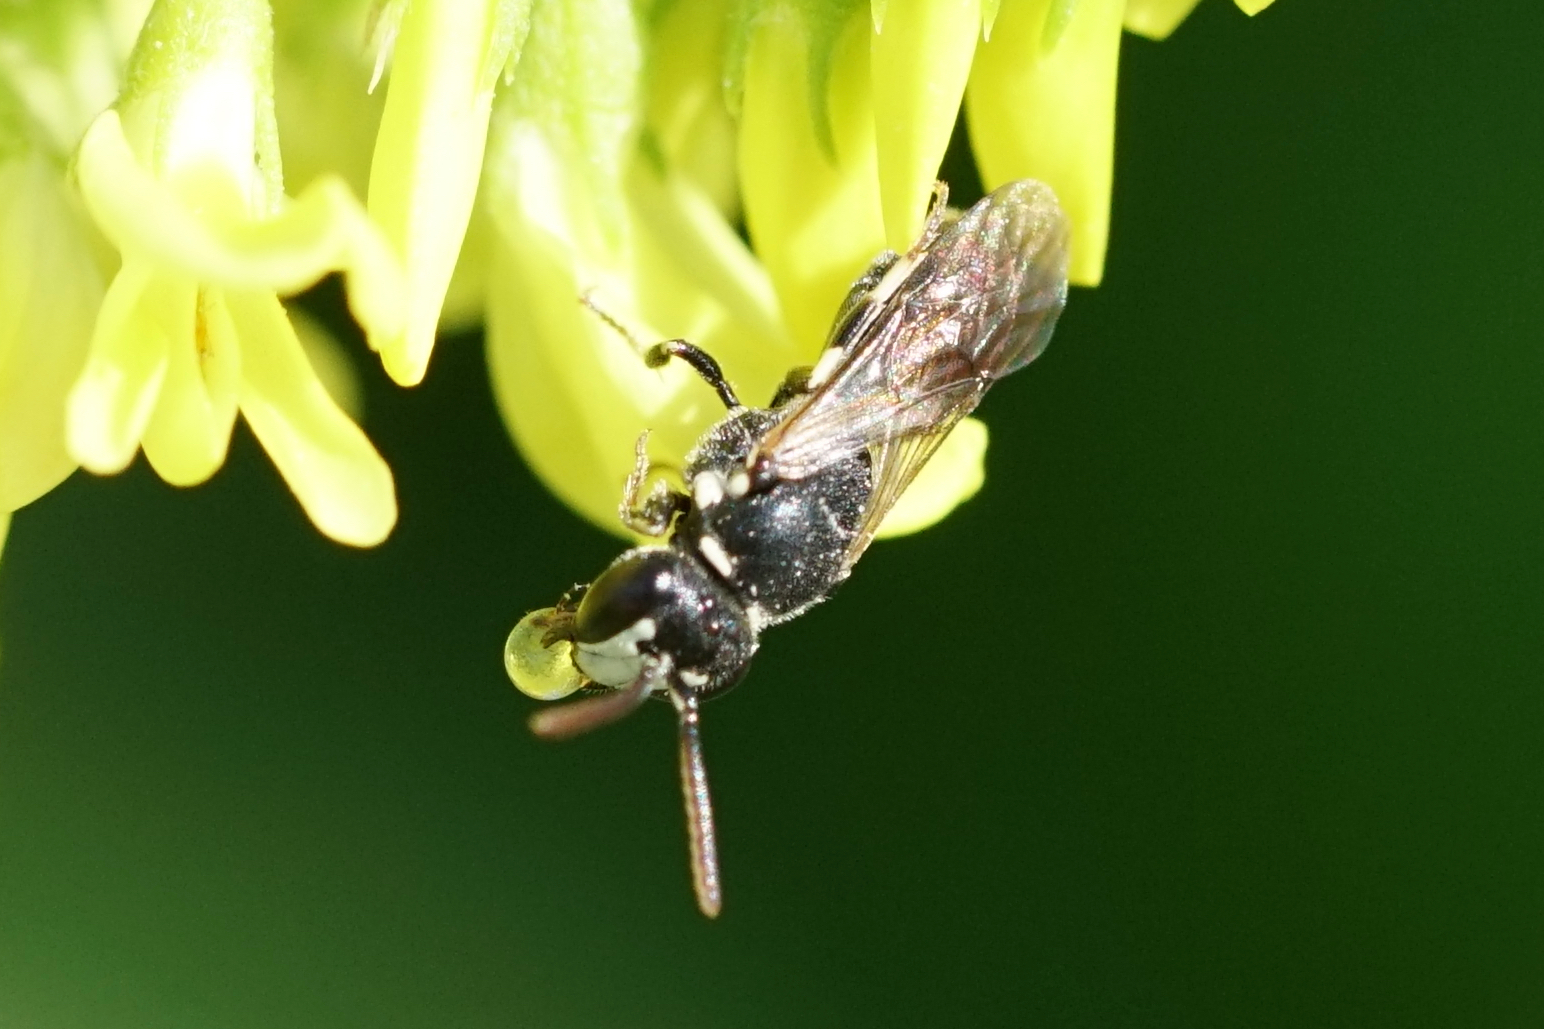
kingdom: Animalia
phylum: Arthropoda
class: Insecta
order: Hymenoptera
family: Colletidae
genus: Hylaeus
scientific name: Hylaeus leptocephalus
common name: Slender-faced masked bee
